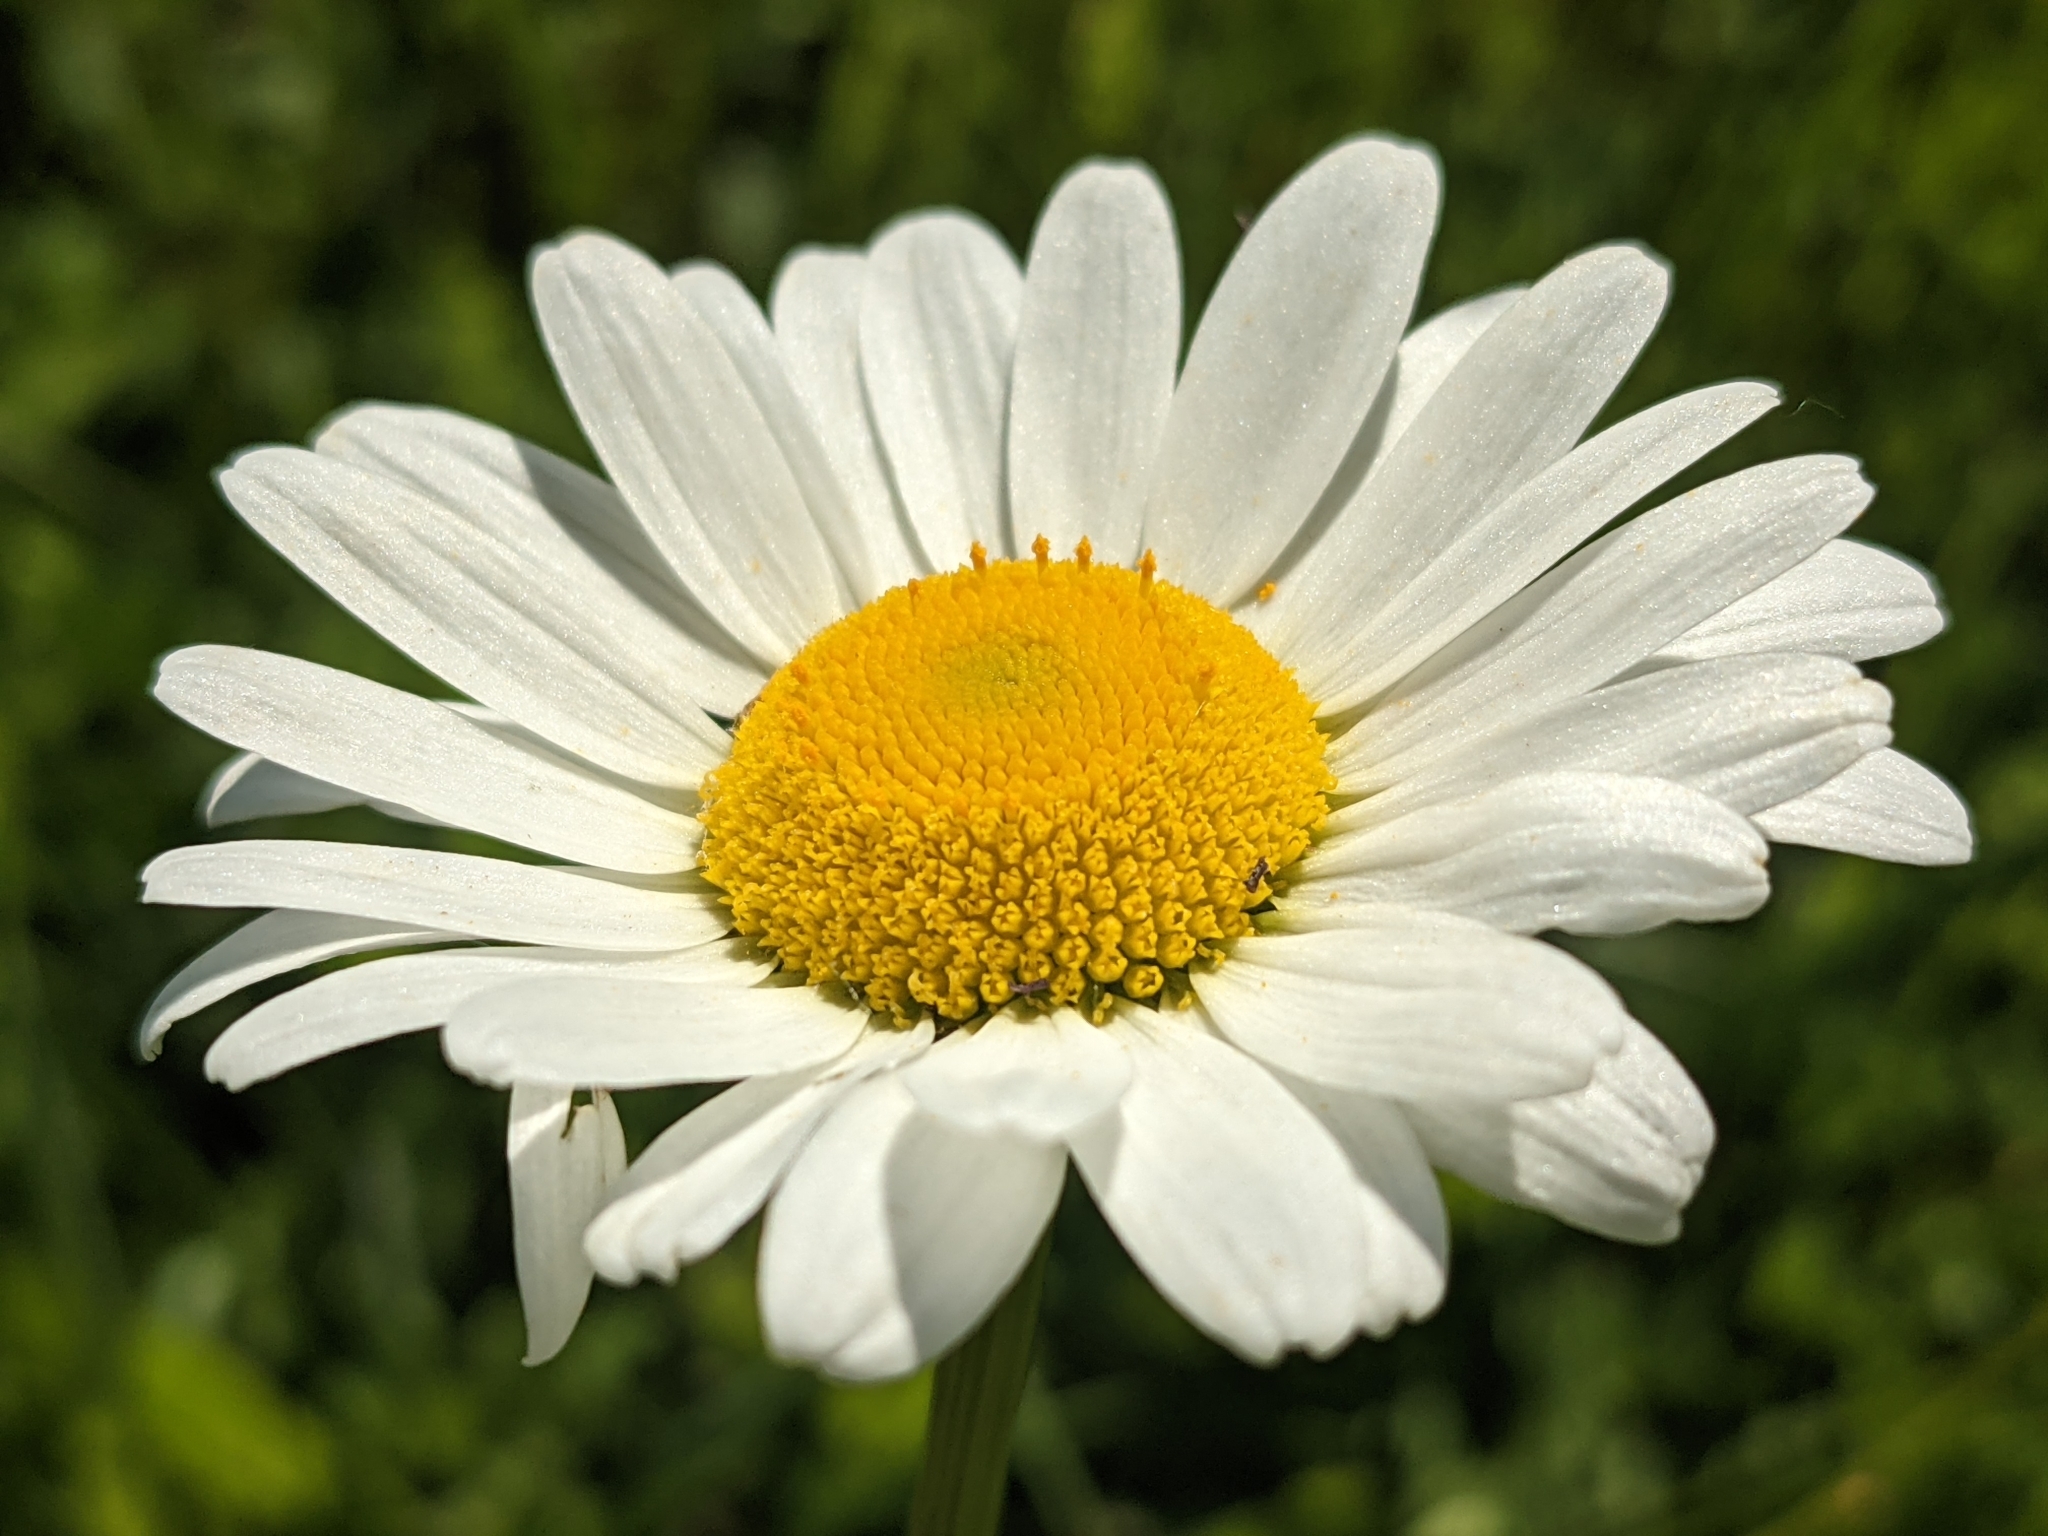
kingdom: Plantae
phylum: Tracheophyta
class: Magnoliopsida
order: Asterales
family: Asteraceae
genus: Leucanthemum
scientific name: Leucanthemum vulgare
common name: Oxeye daisy
